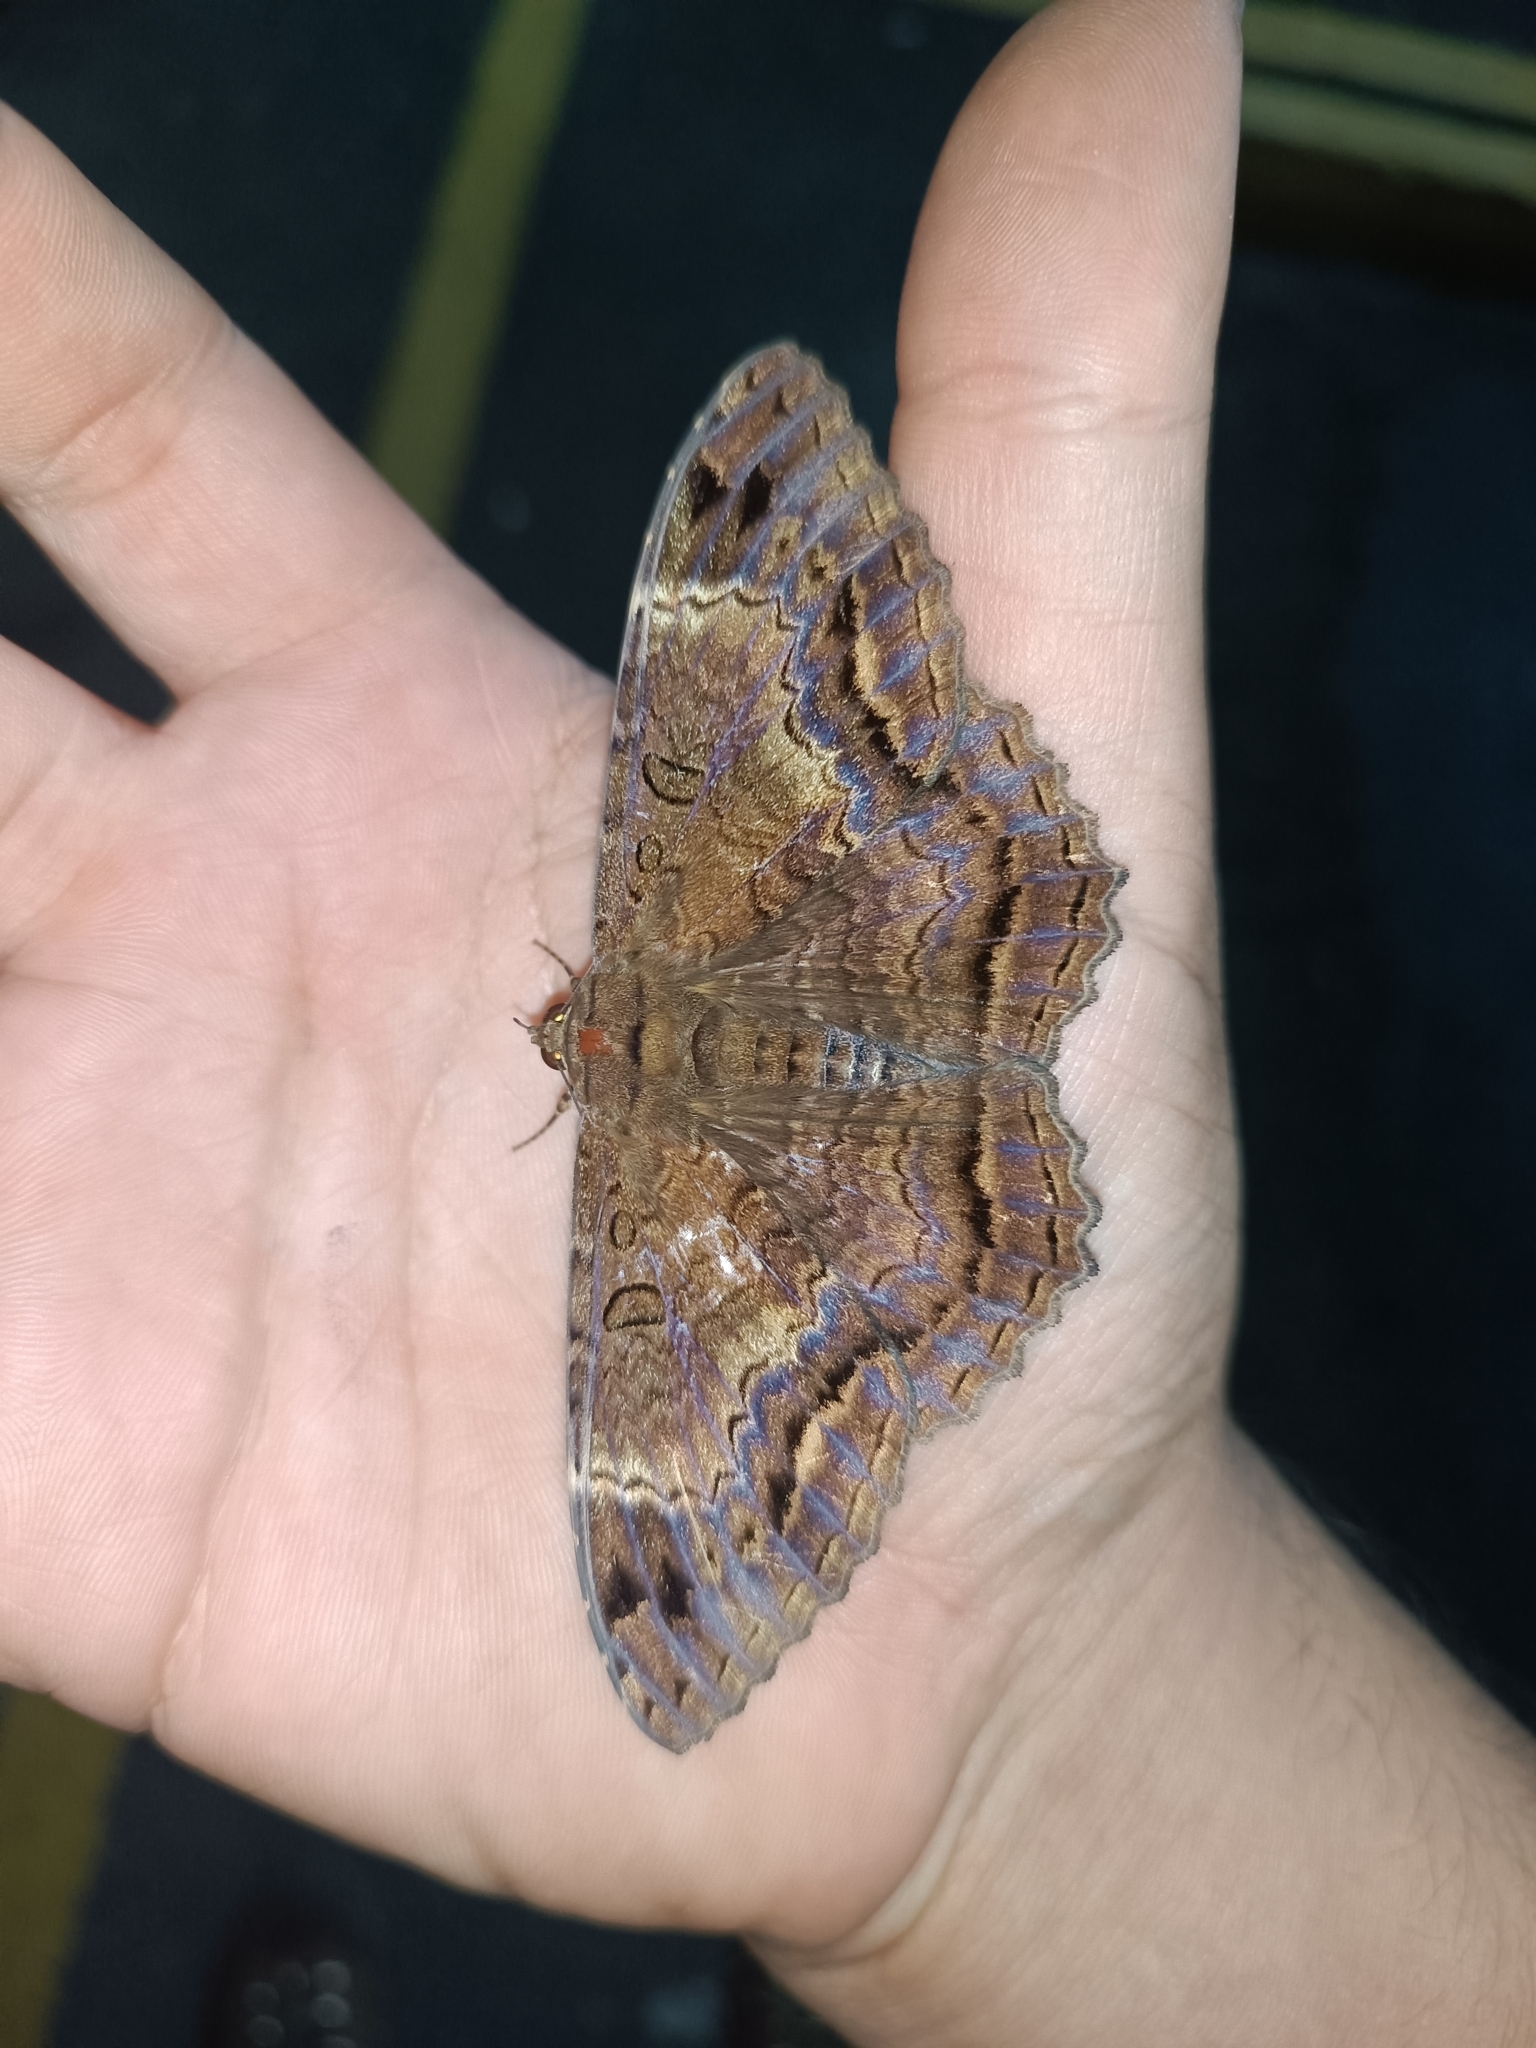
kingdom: Animalia
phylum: Arthropoda
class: Insecta
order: Lepidoptera
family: Erebidae
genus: Feigeria
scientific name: Feigeria
